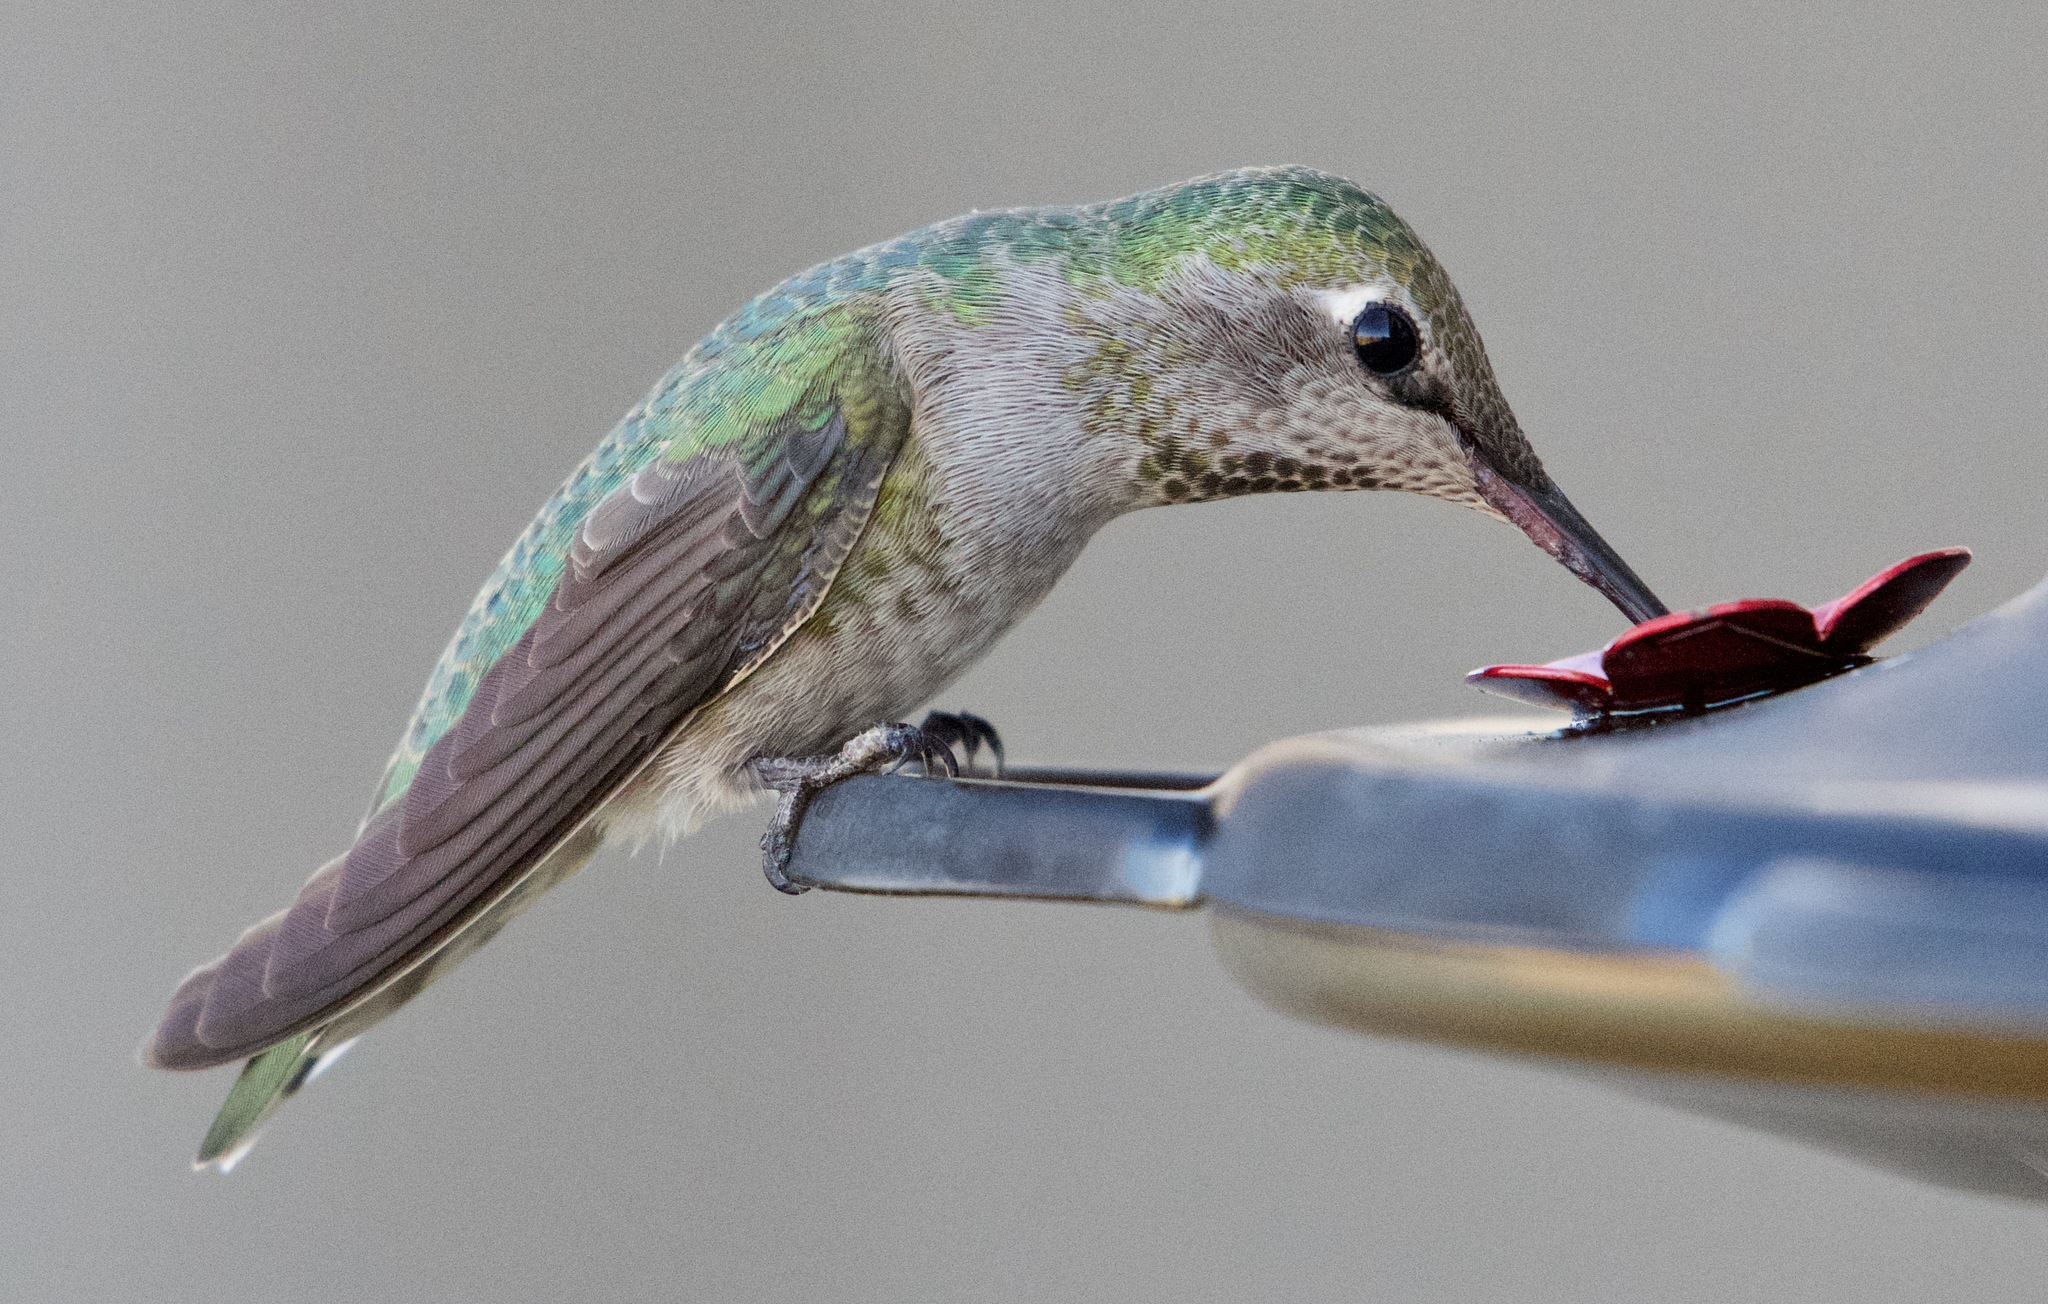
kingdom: Animalia
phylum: Chordata
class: Aves
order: Apodiformes
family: Trochilidae
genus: Calypte
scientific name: Calypte anna
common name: Anna's hummingbird
